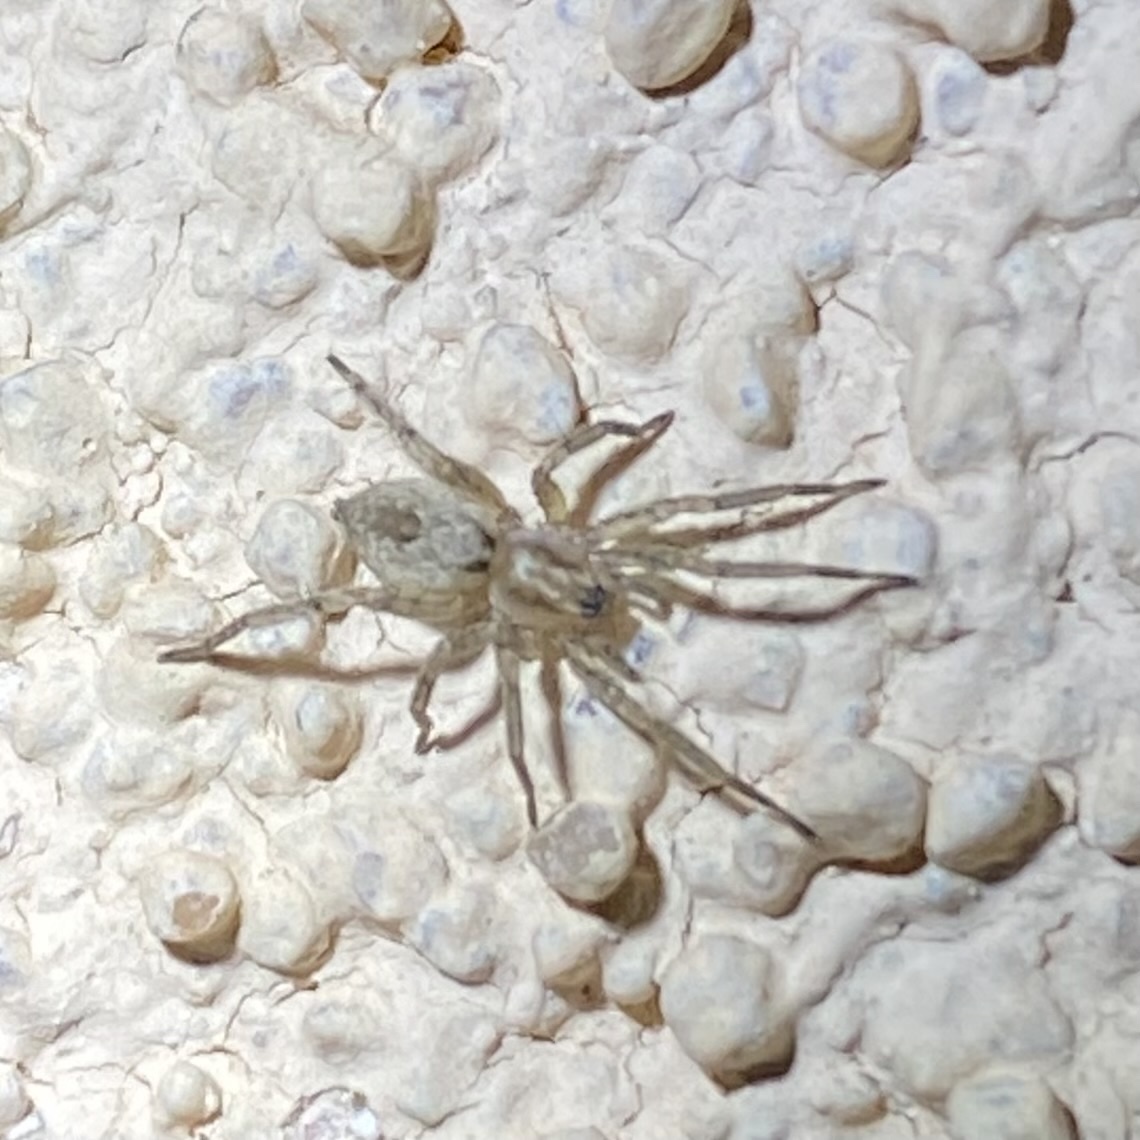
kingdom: Animalia
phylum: Arthropoda
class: Arachnida
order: Araneae
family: Anyphaenidae
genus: Anyphaena
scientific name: Anyphaena
